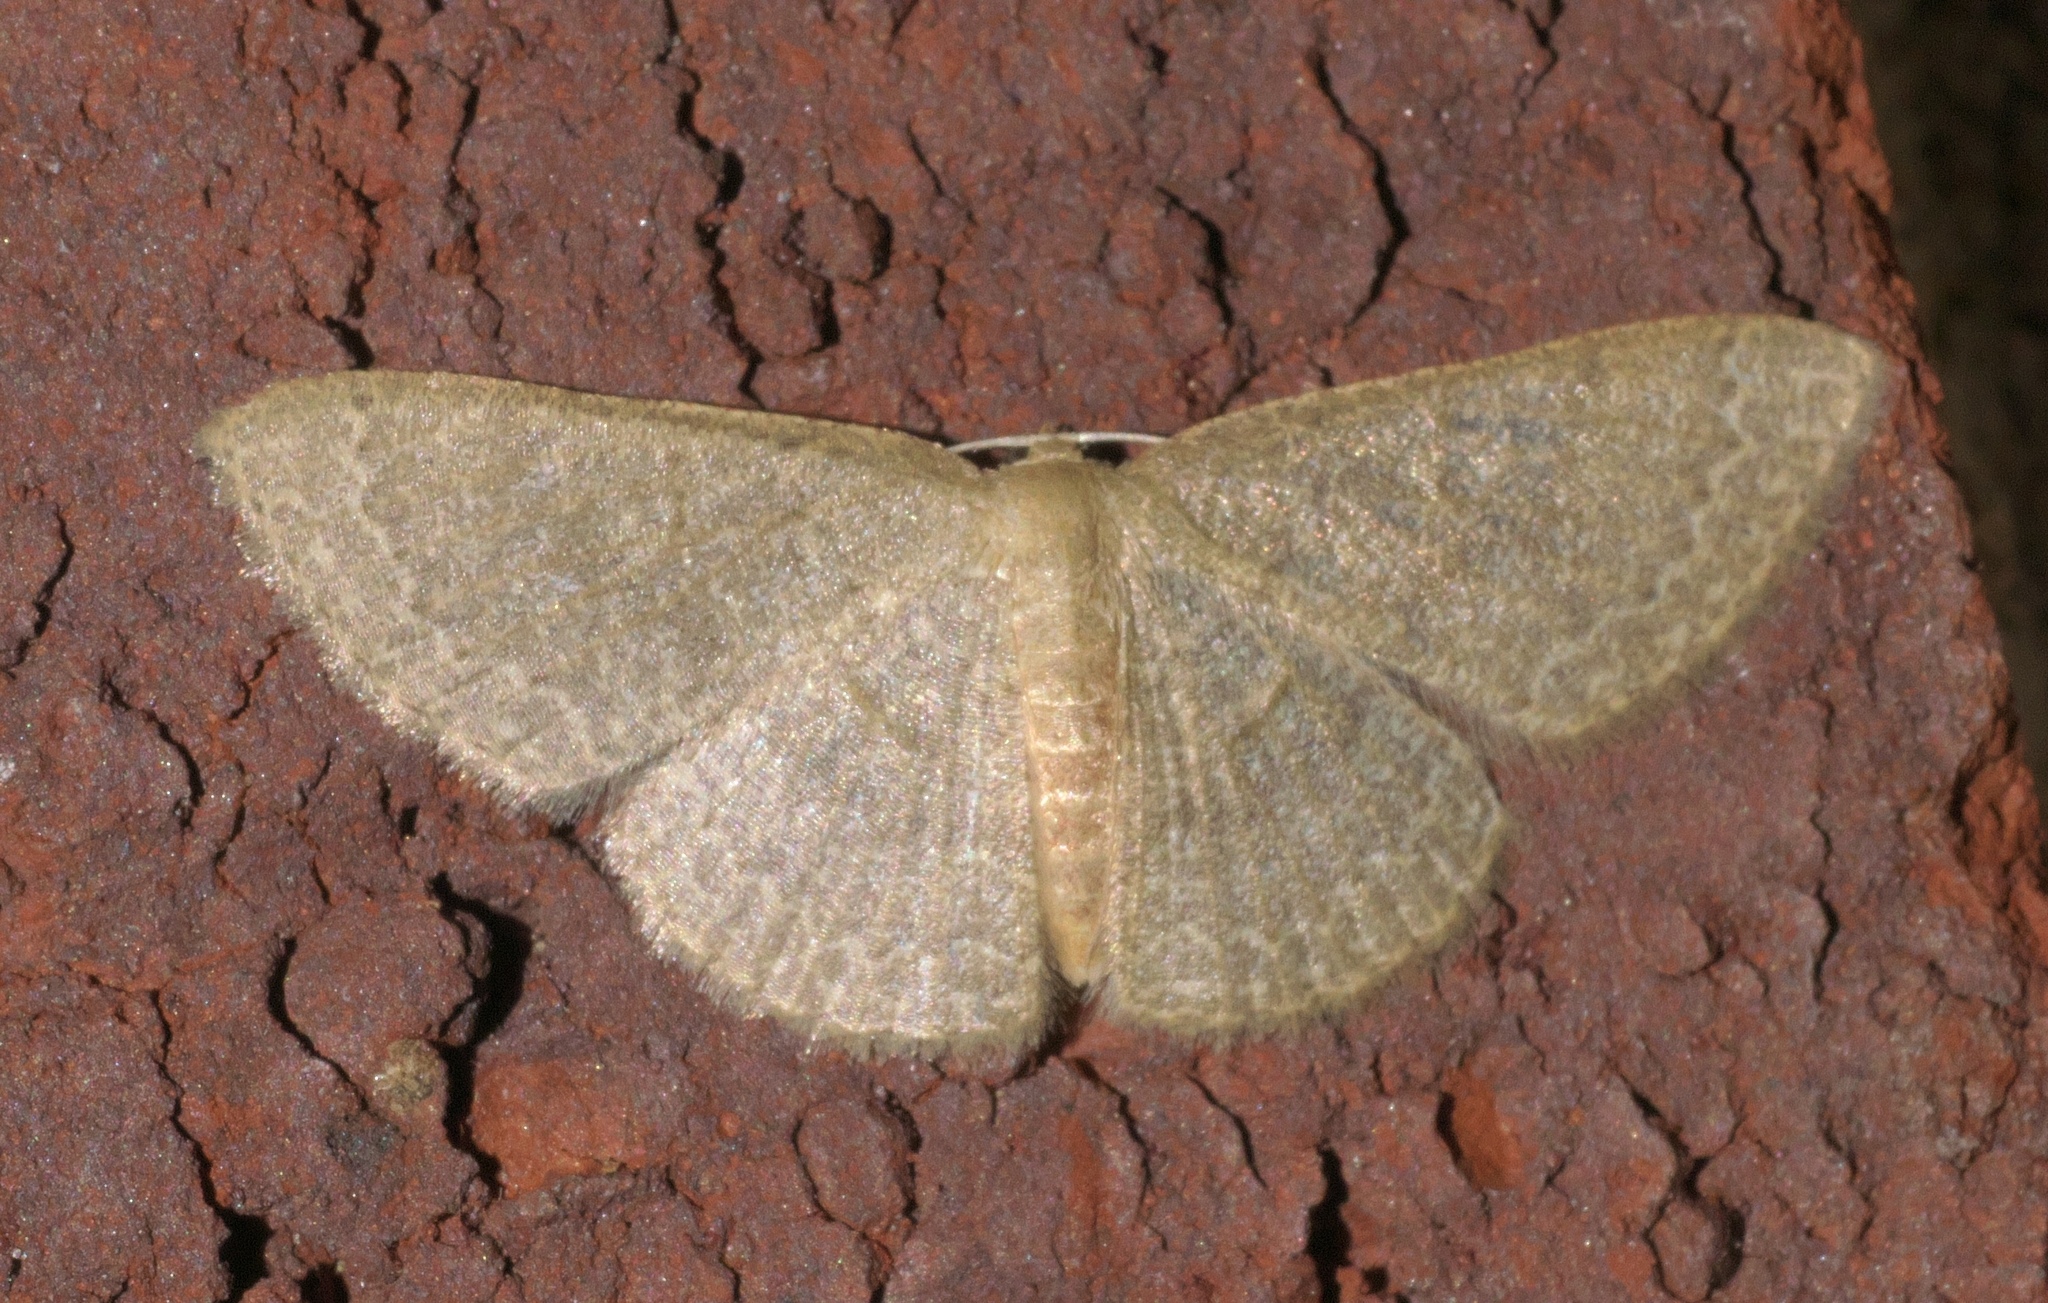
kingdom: Animalia
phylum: Arthropoda
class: Insecta
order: Lepidoptera
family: Geometridae
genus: Pleuroprucha
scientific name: Pleuroprucha insulsaria
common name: Common tan wave
